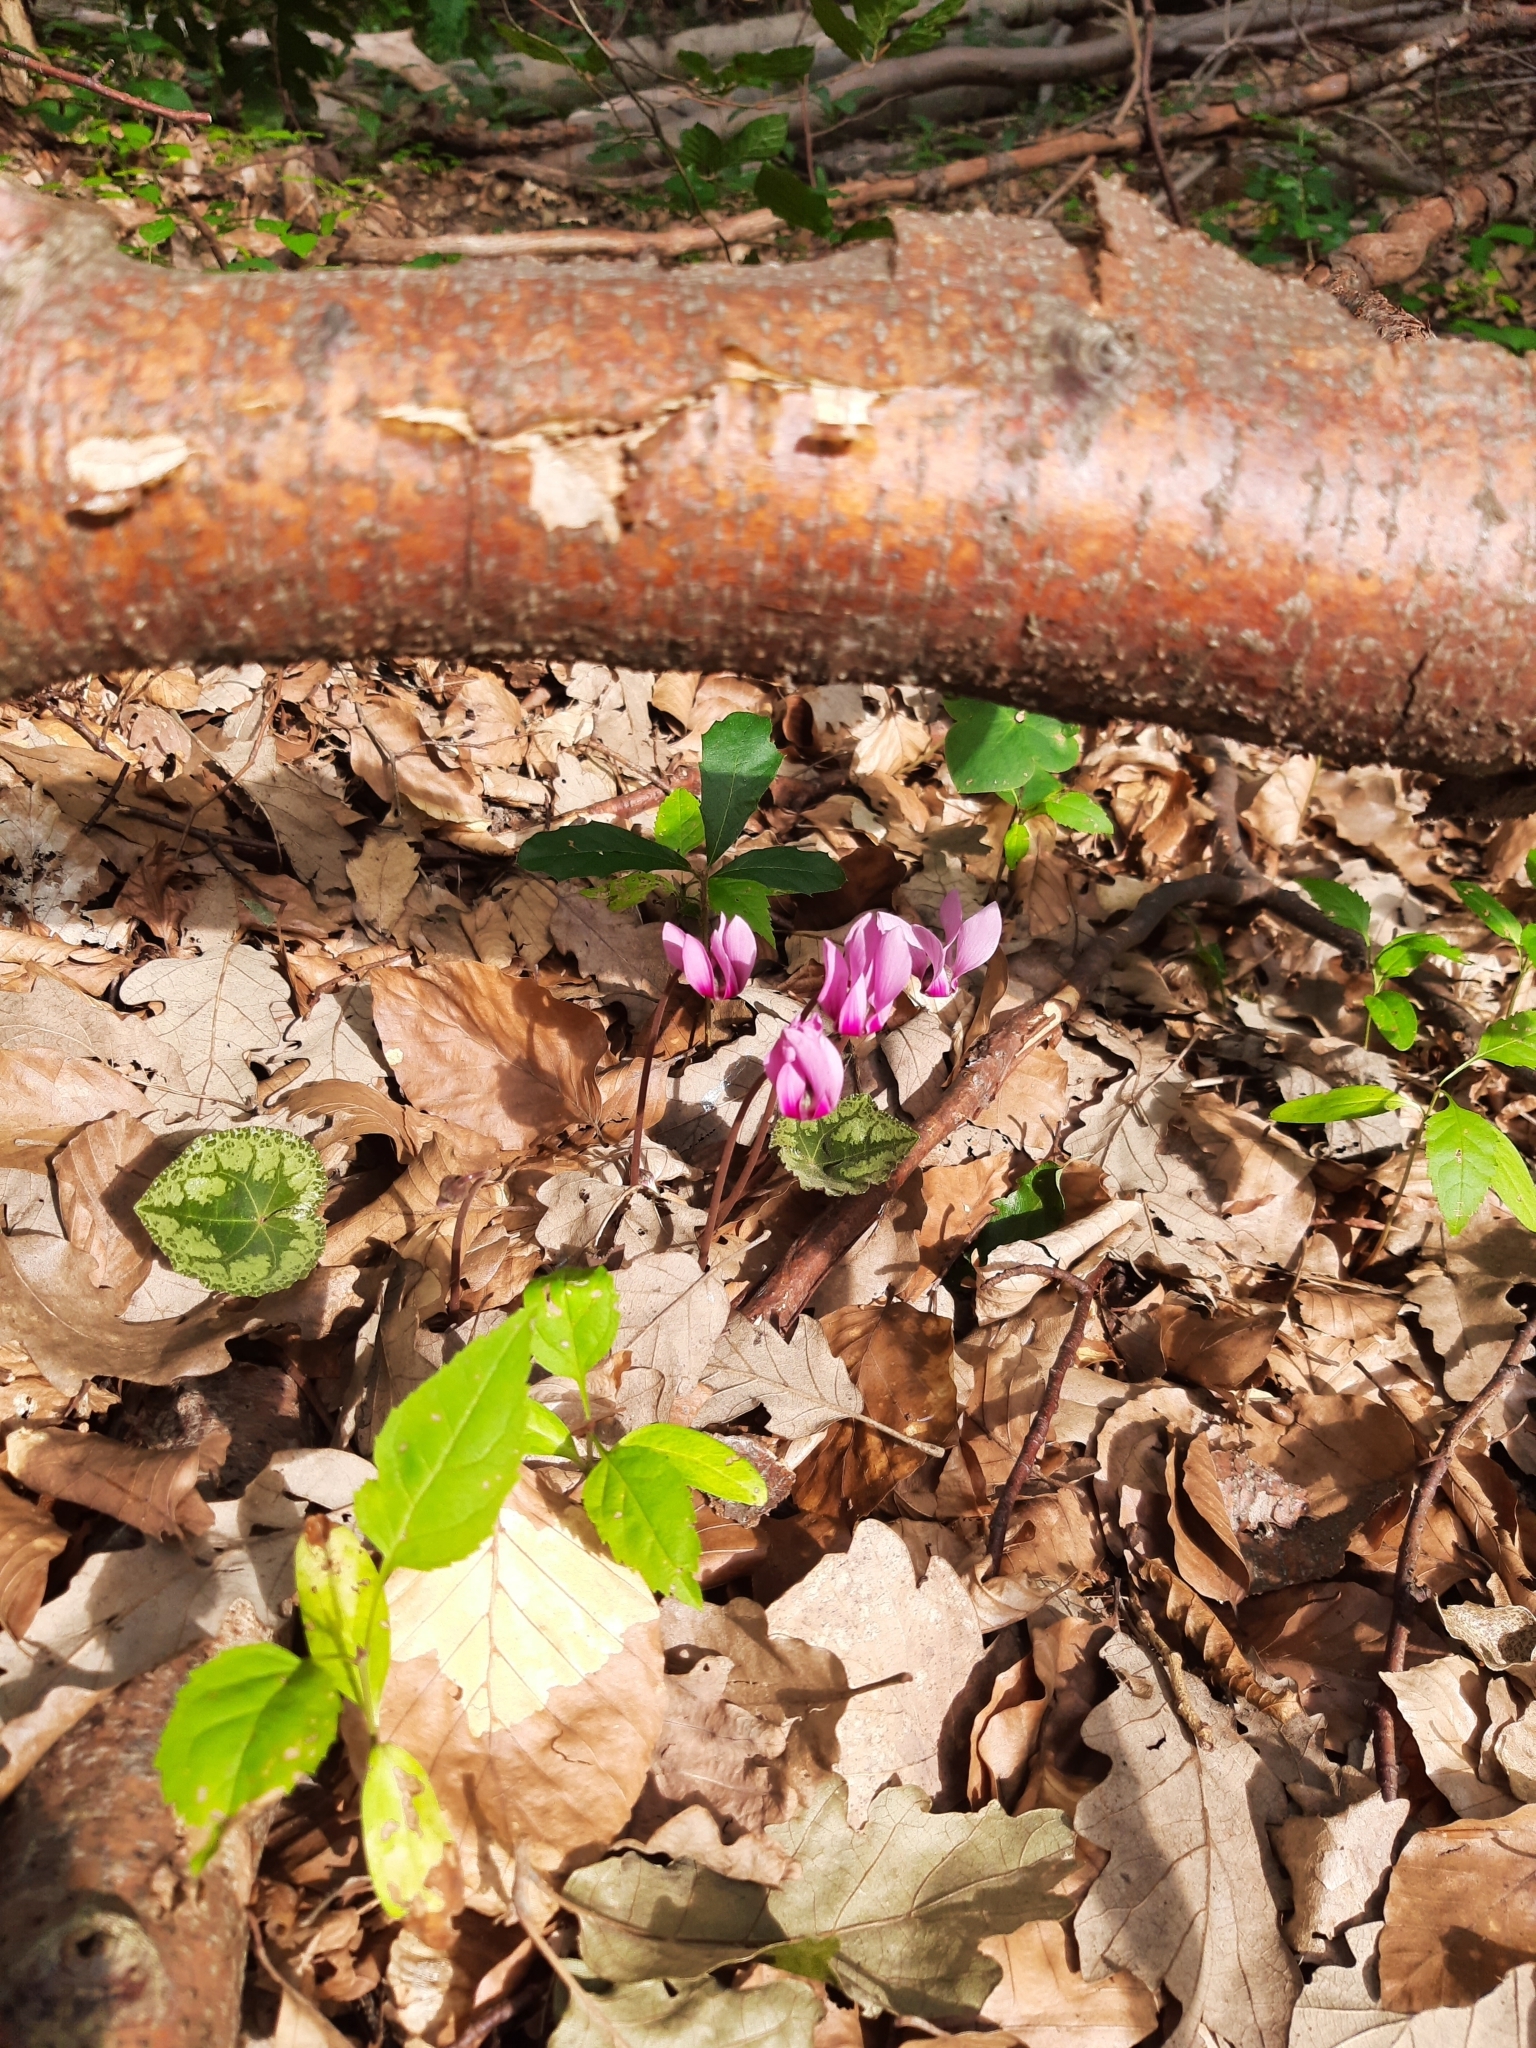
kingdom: Plantae
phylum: Tracheophyta
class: Magnoliopsida
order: Ericales
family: Primulaceae
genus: Cyclamen
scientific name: Cyclamen purpurascens
